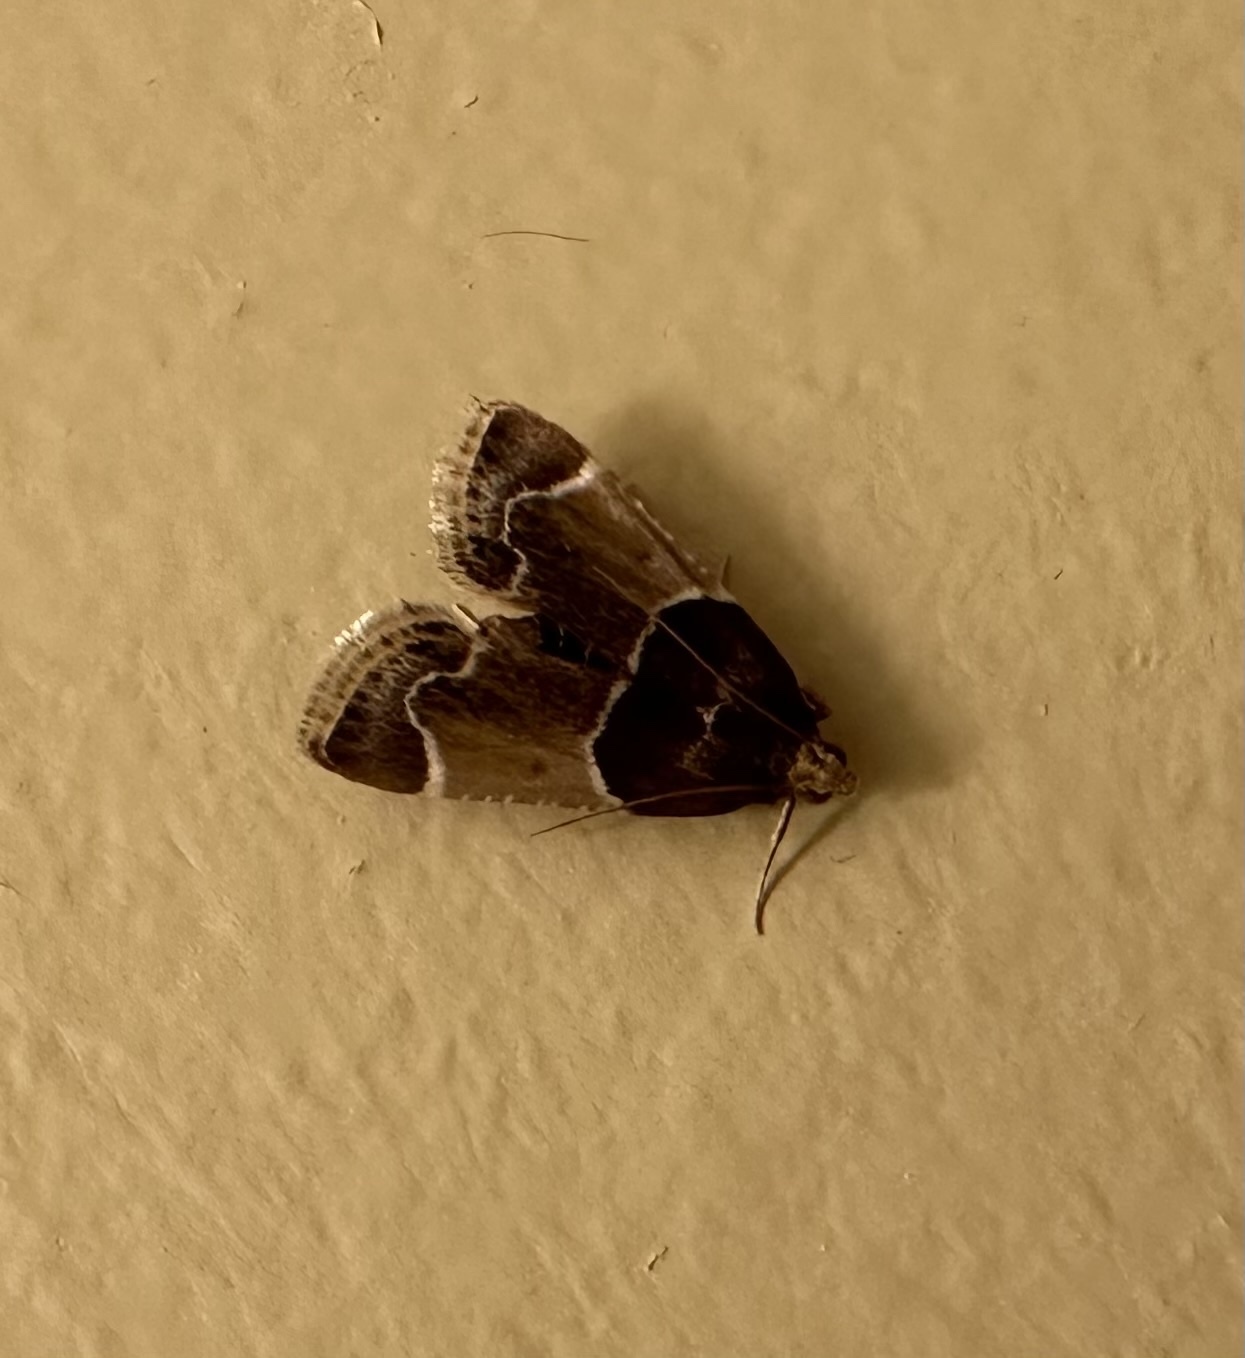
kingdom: Animalia
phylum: Arthropoda
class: Insecta
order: Lepidoptera
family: Pyralidae
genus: Pyralis
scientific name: Pyralis farinalis
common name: Meal moth
